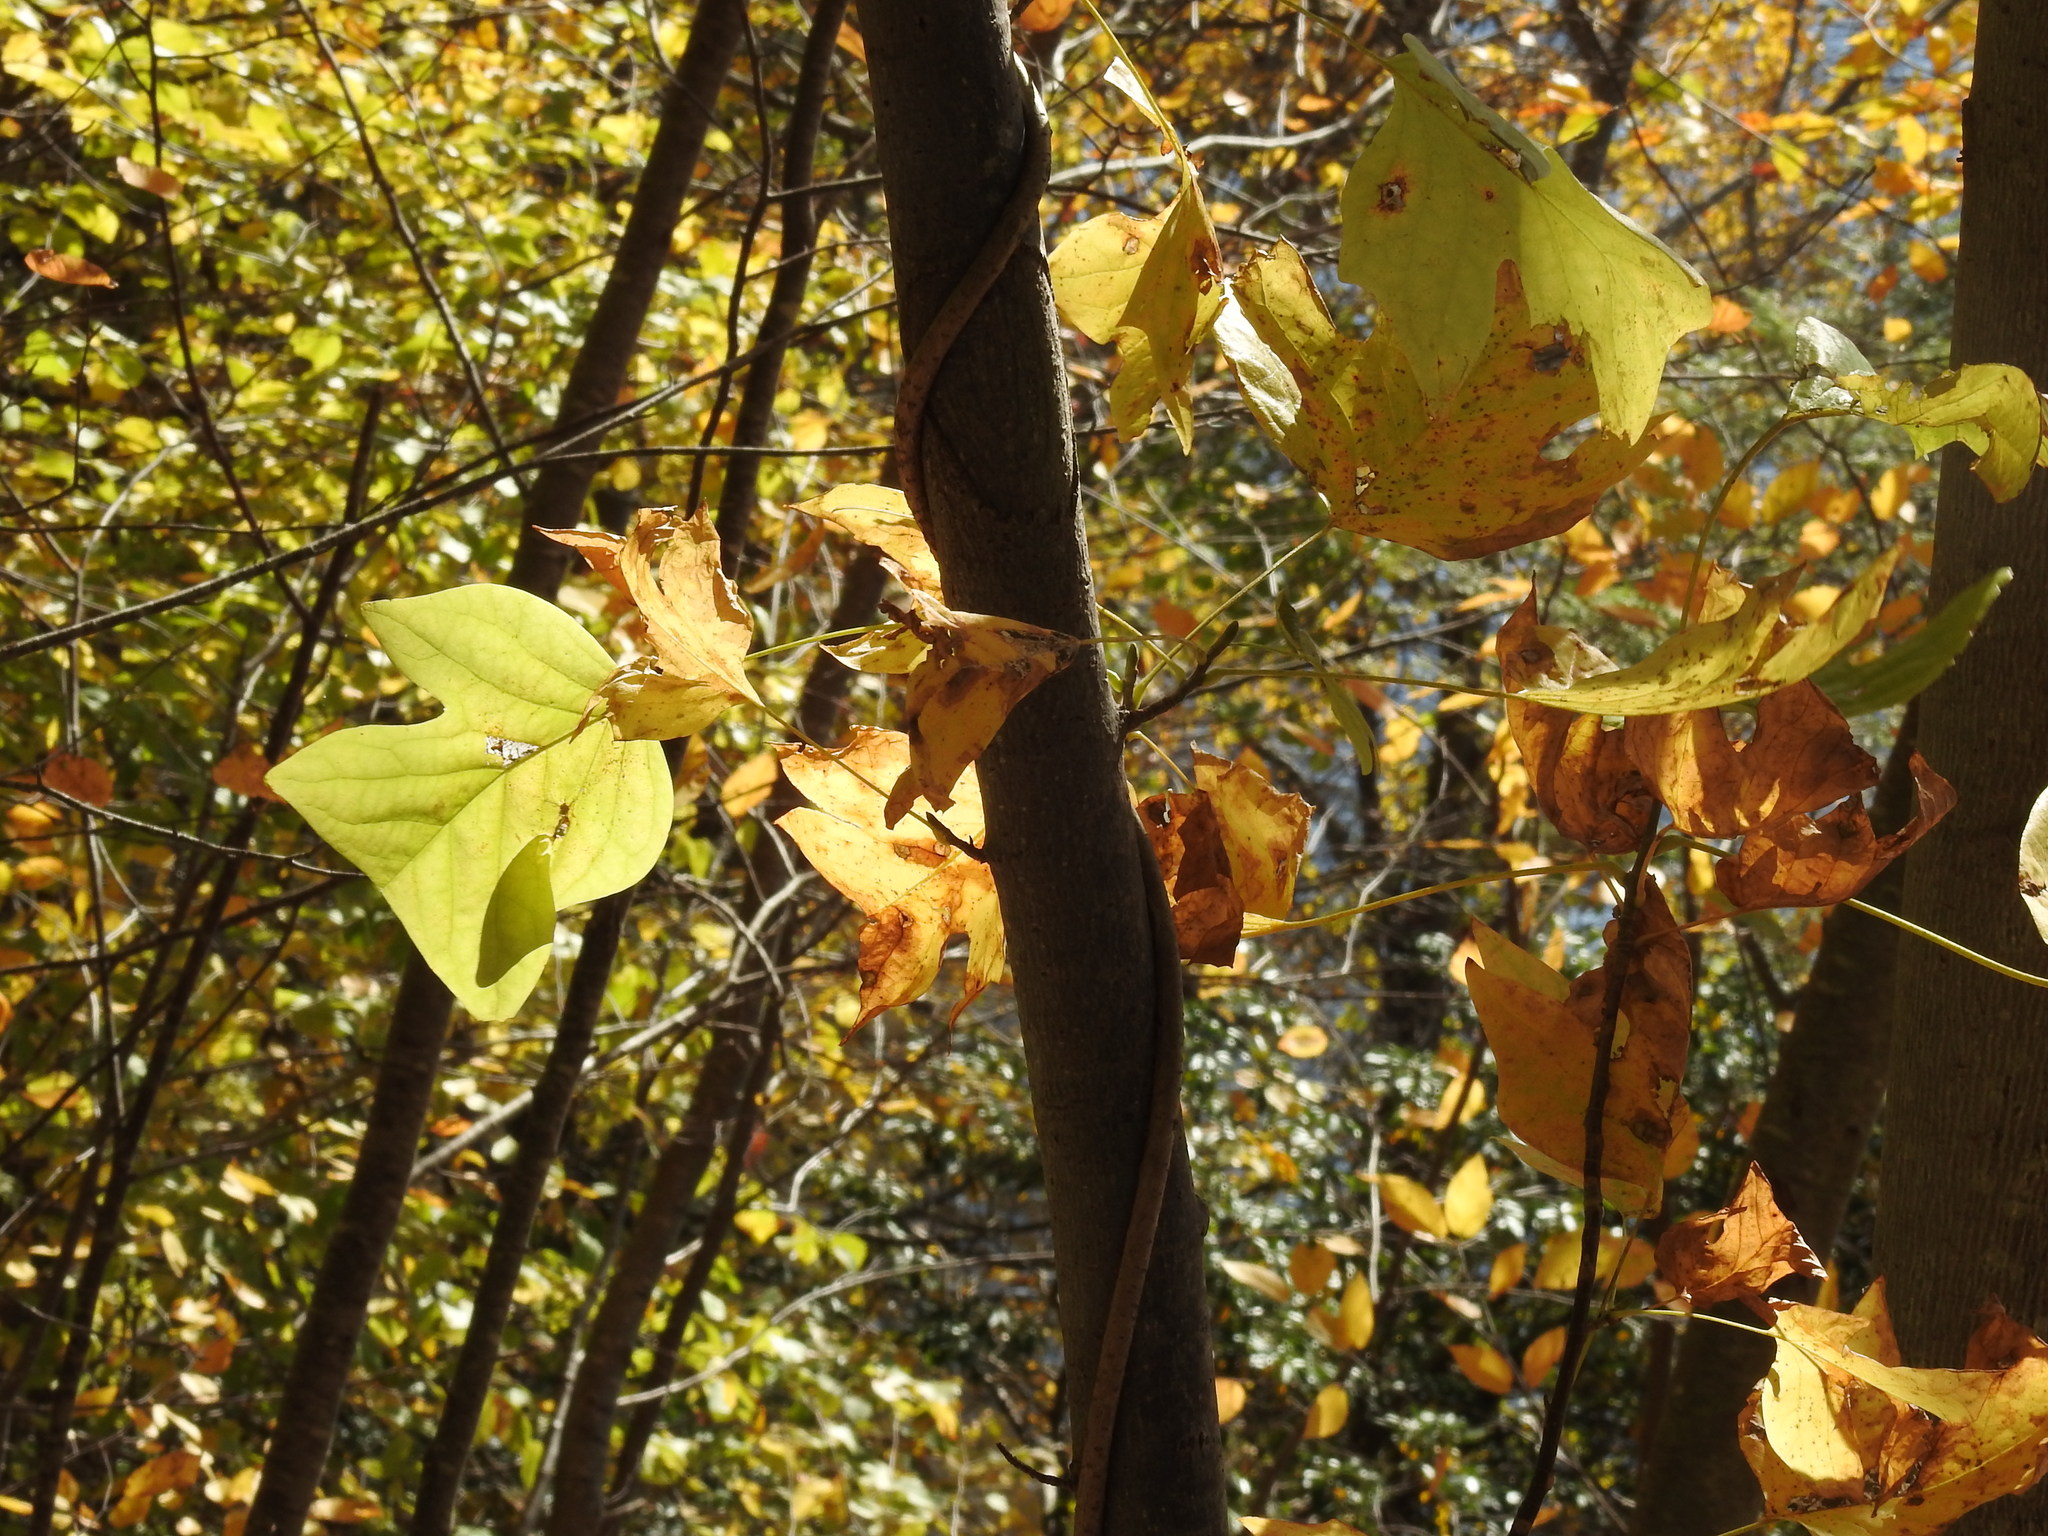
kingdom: Plantae
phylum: Tracheophyta
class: Magnoliopsida
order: Magnoliales
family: Magnoliaceae
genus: Liriodendron
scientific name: Liriodendron tulipifera
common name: Tulip tree
